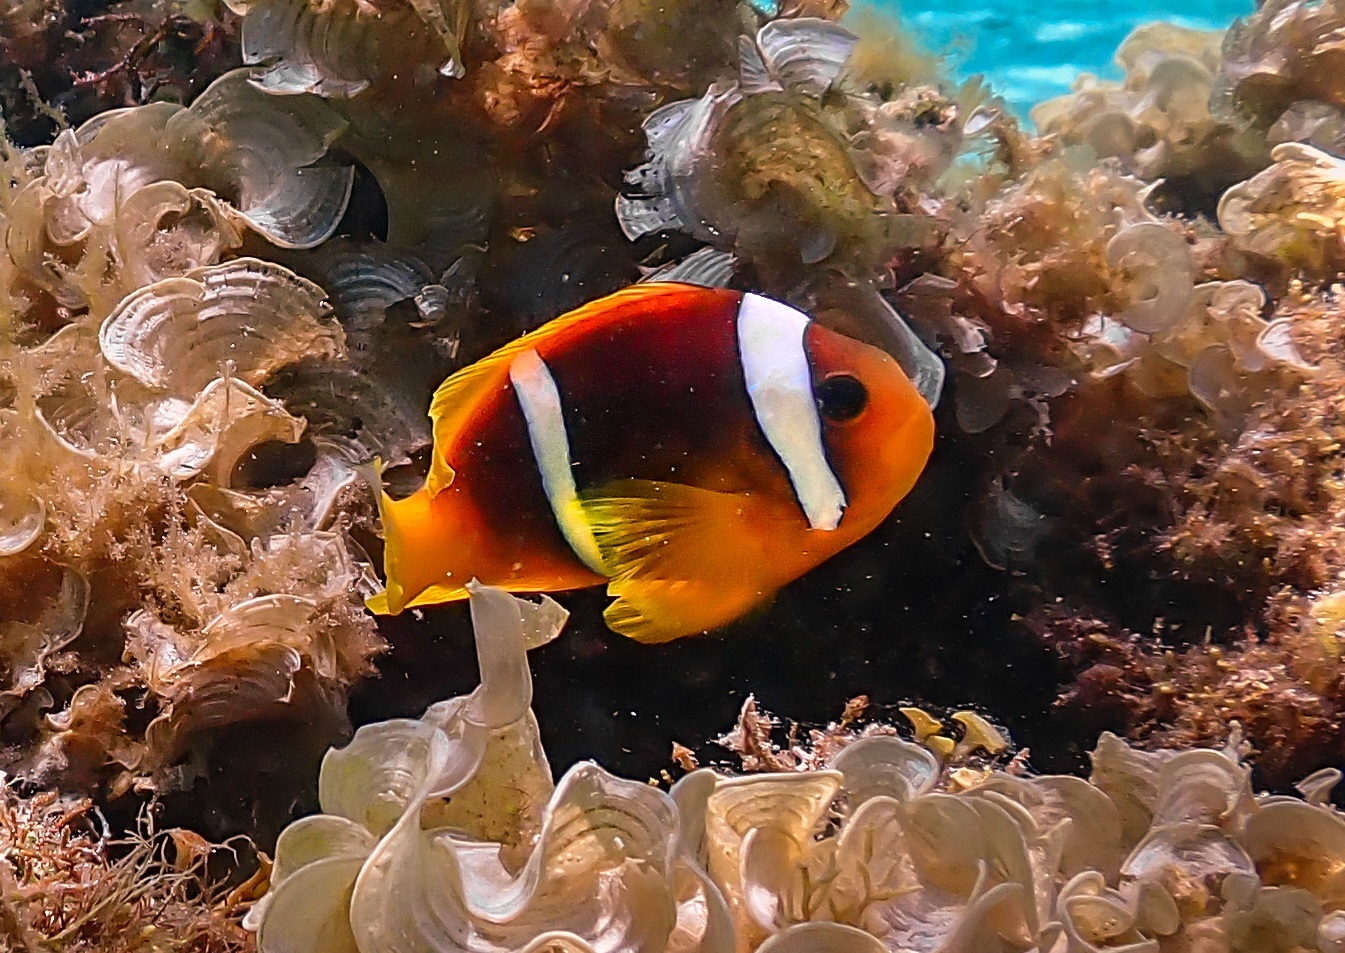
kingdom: Animalia
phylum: Chordata
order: Perciformes
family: Pomacentridae
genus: Amphiprion
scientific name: Amphiprion bicinctus
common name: Two-banded anemonefish
